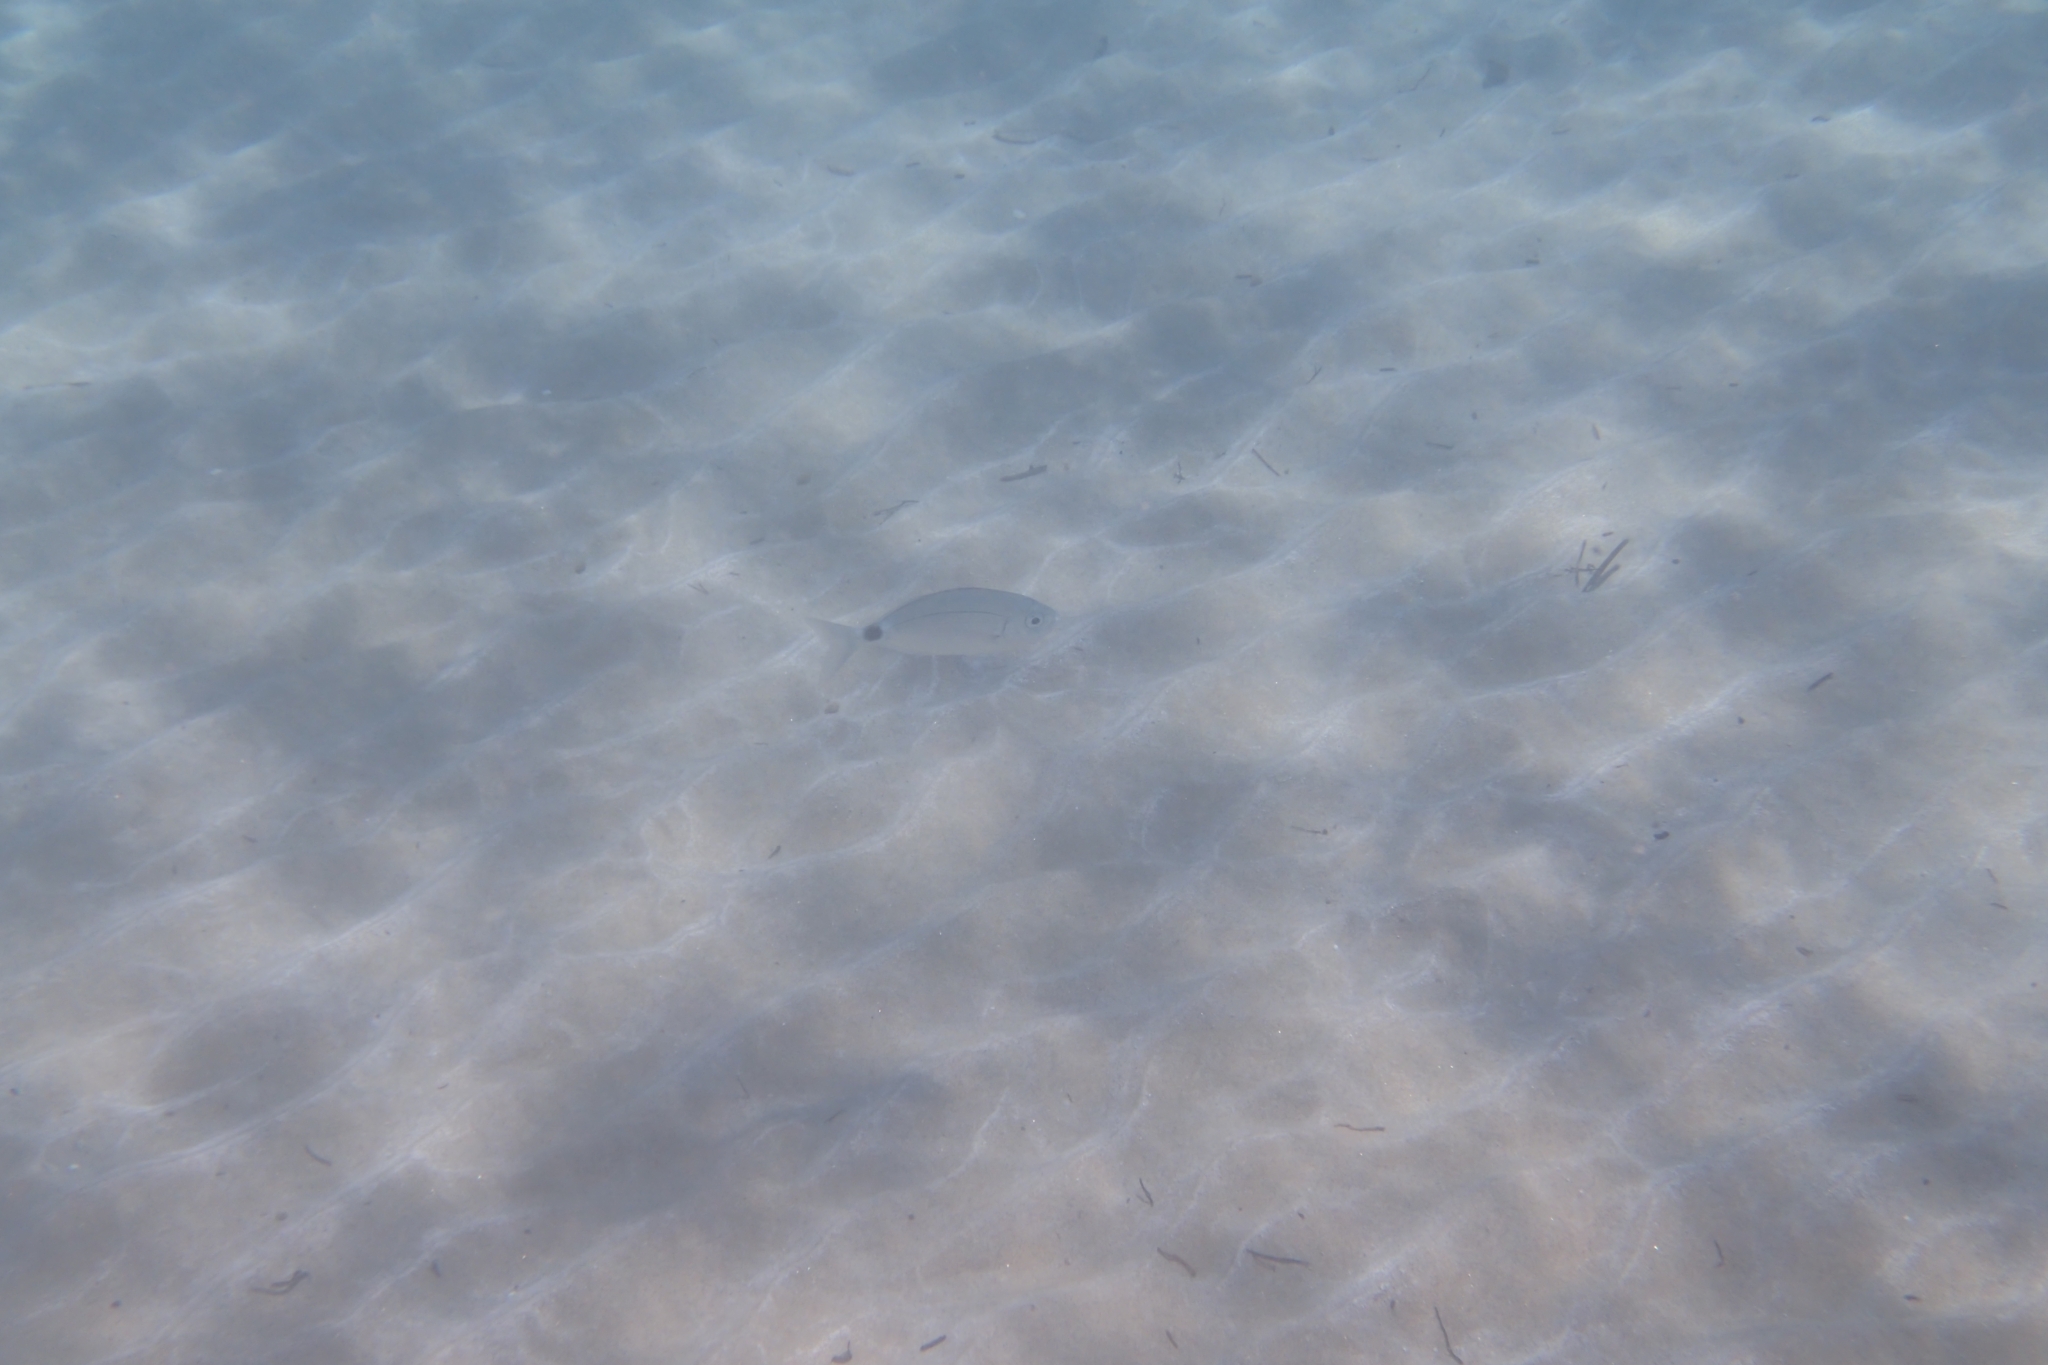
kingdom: Animalia
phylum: Chordata
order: Perciformes
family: Sparidae
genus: Oblada
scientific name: Oblada melanura
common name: Saddled seabream
